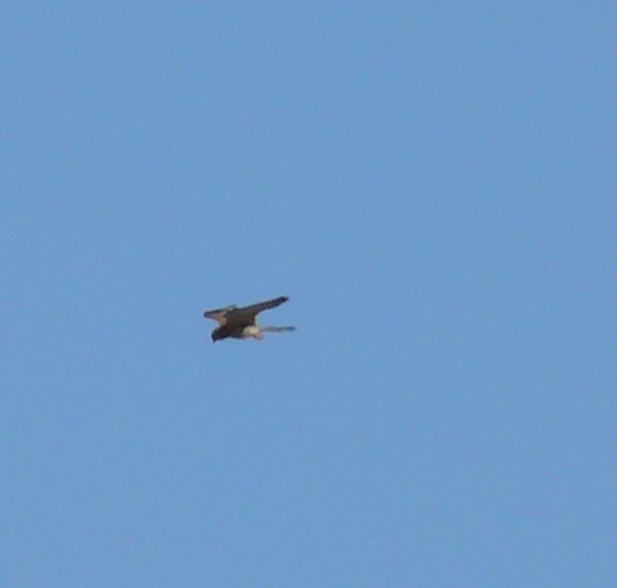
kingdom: Animalia
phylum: Chordata
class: Aves
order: Falconiformes
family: Falconidae
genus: Falco
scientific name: Falco tinnunculus
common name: Common kestrel
